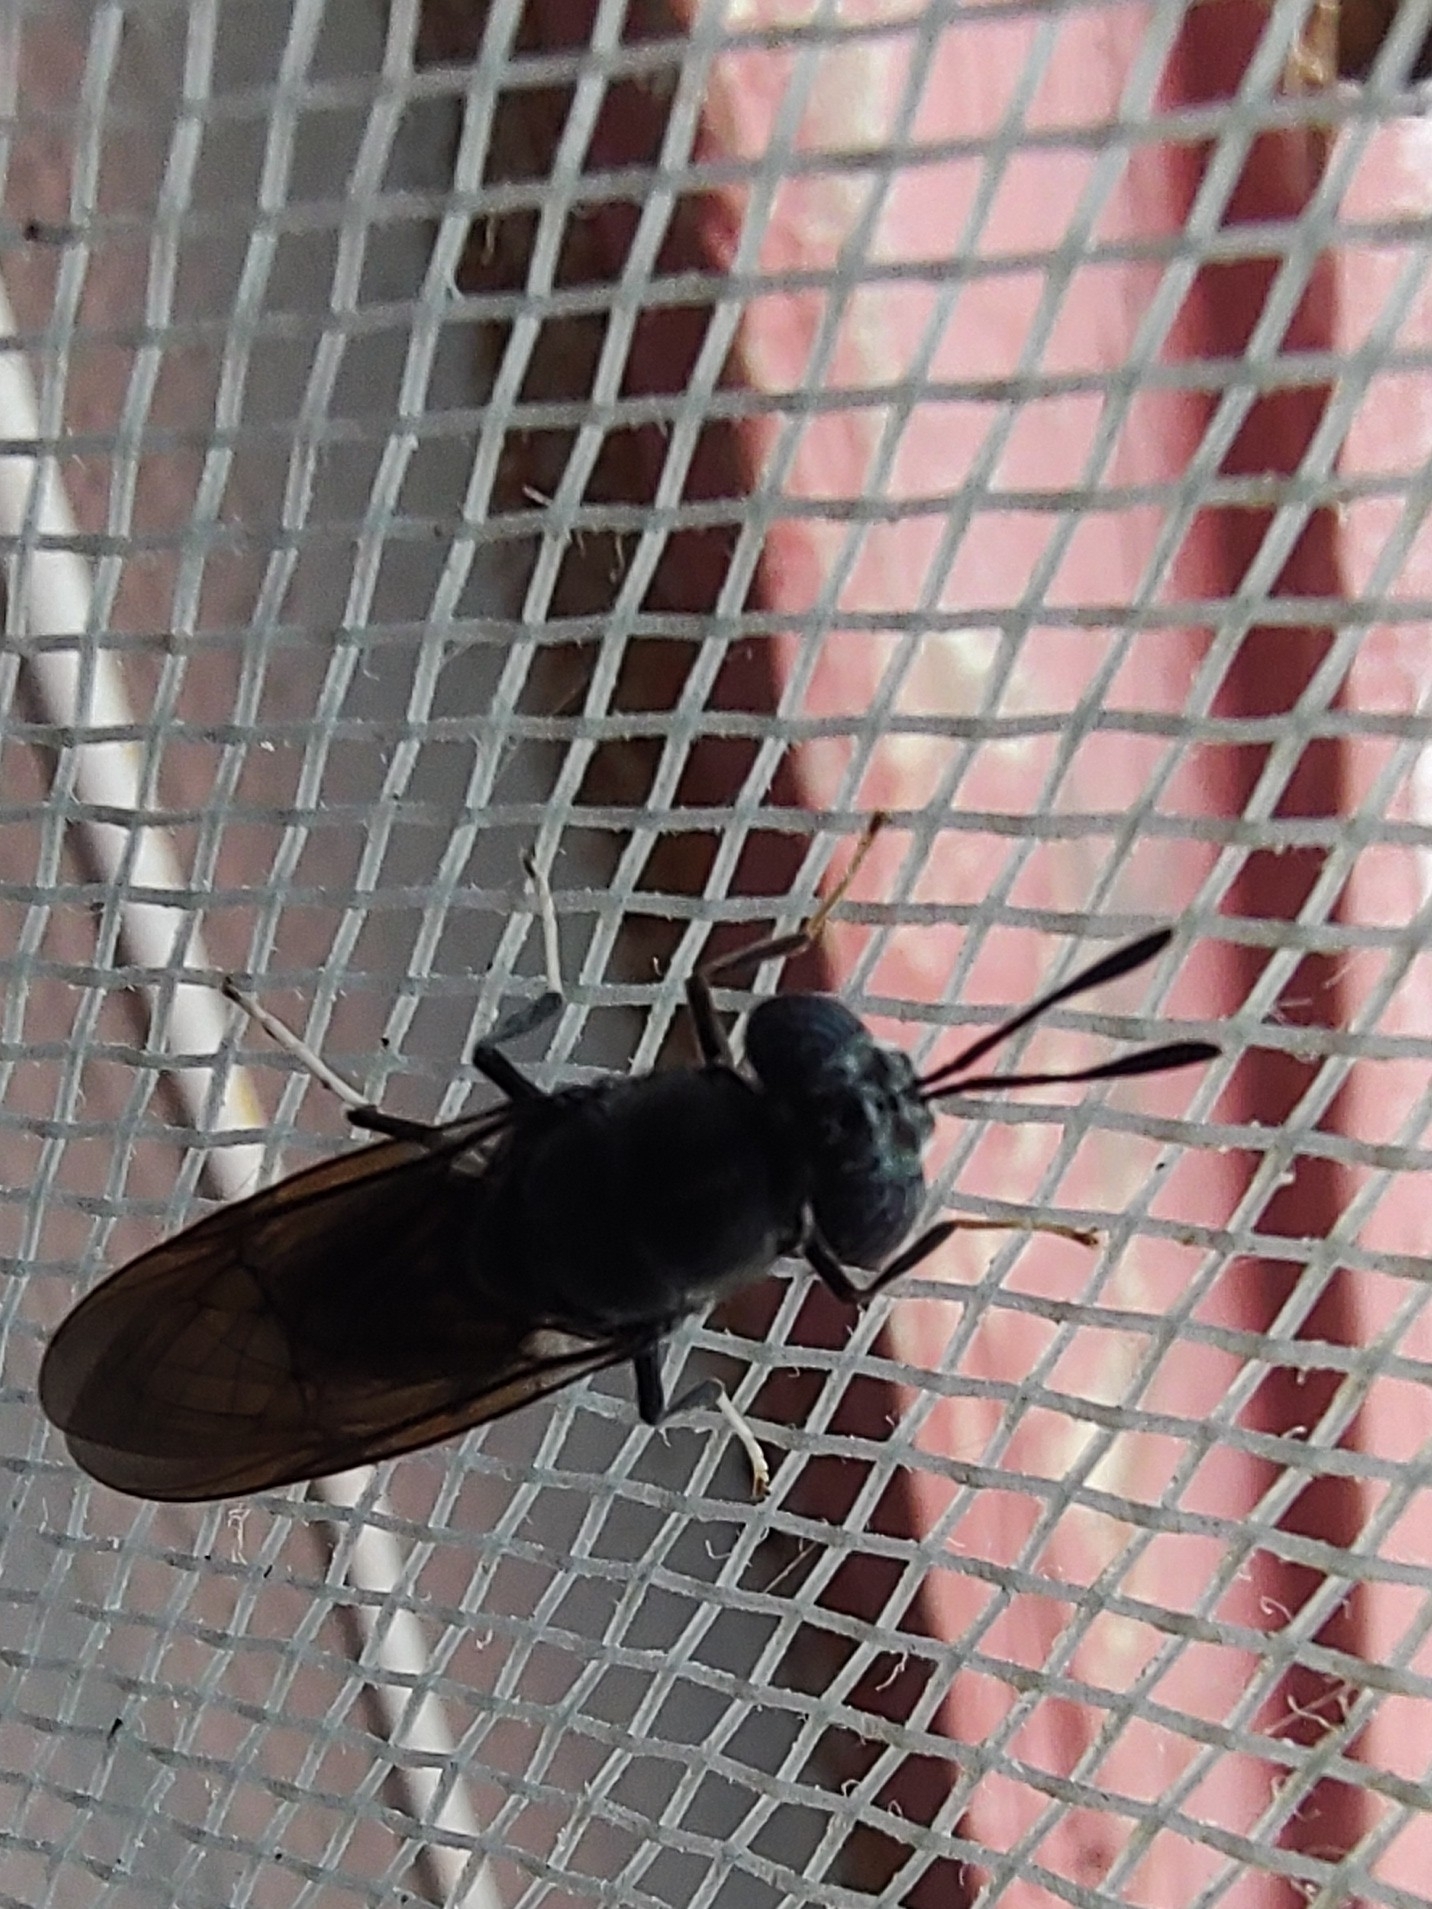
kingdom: Animalia
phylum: Arthropoda
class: Insecta
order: Diptera
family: Stratiomyidae
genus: Hermetia
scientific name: Hermetia illucens
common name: Black soldier fly
